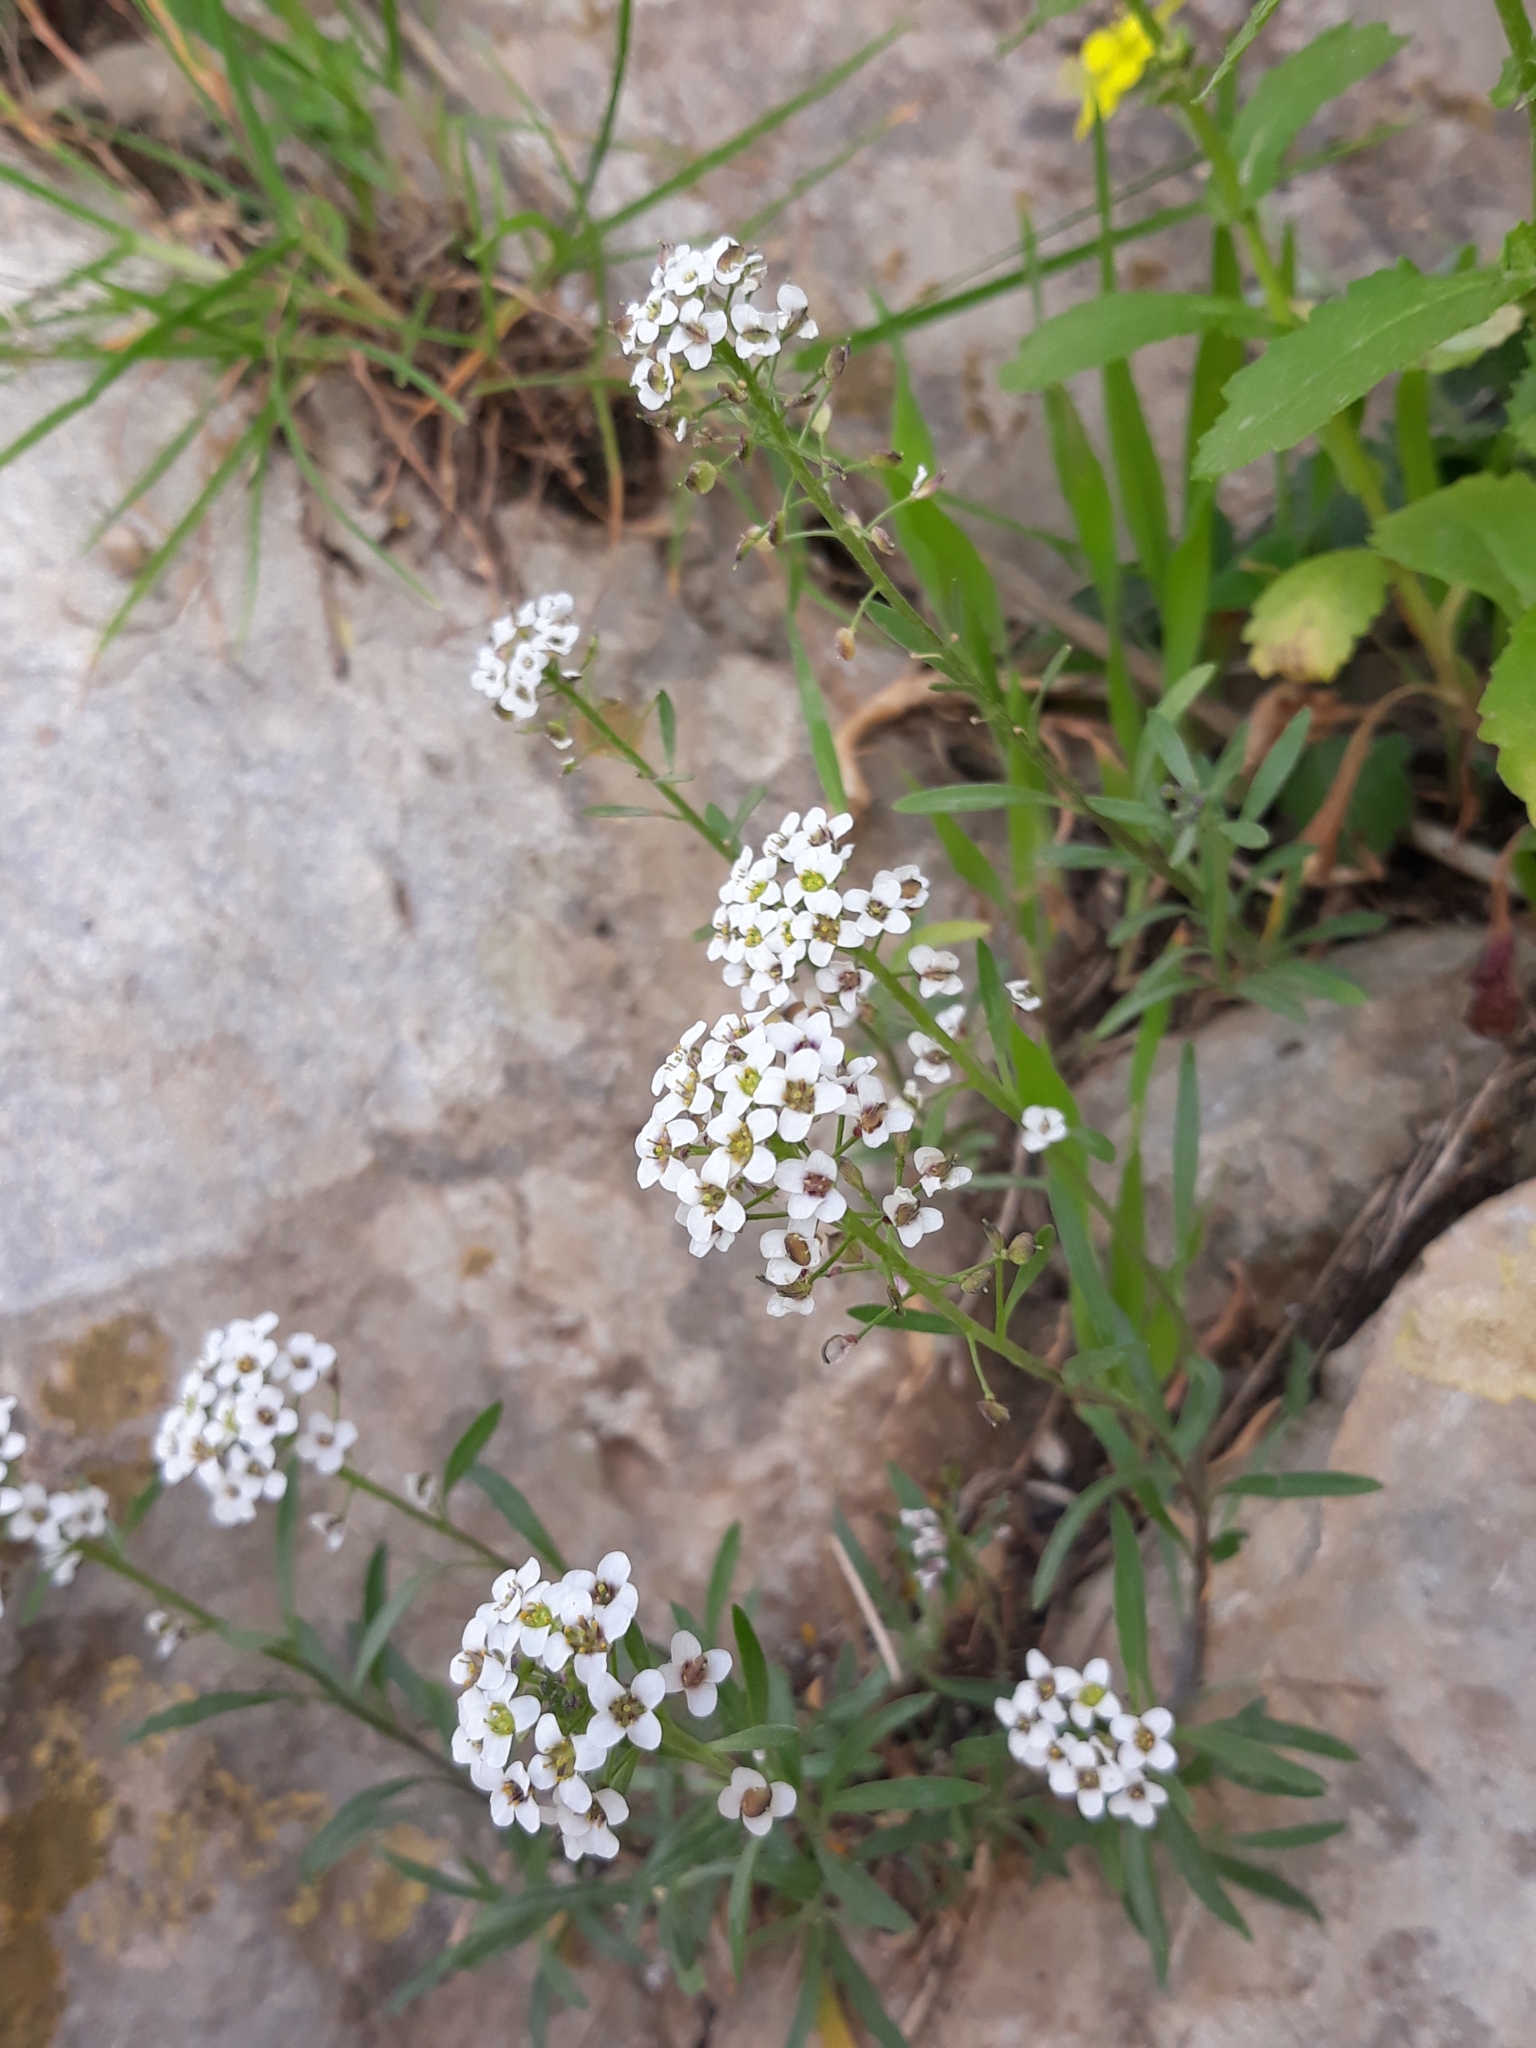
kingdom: Plantae
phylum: Tracheophyta
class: Magnoliopsida
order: Brassicales
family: Brassicaceae
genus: Lobularia
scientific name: Lobularia maritima
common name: Sweet alison
